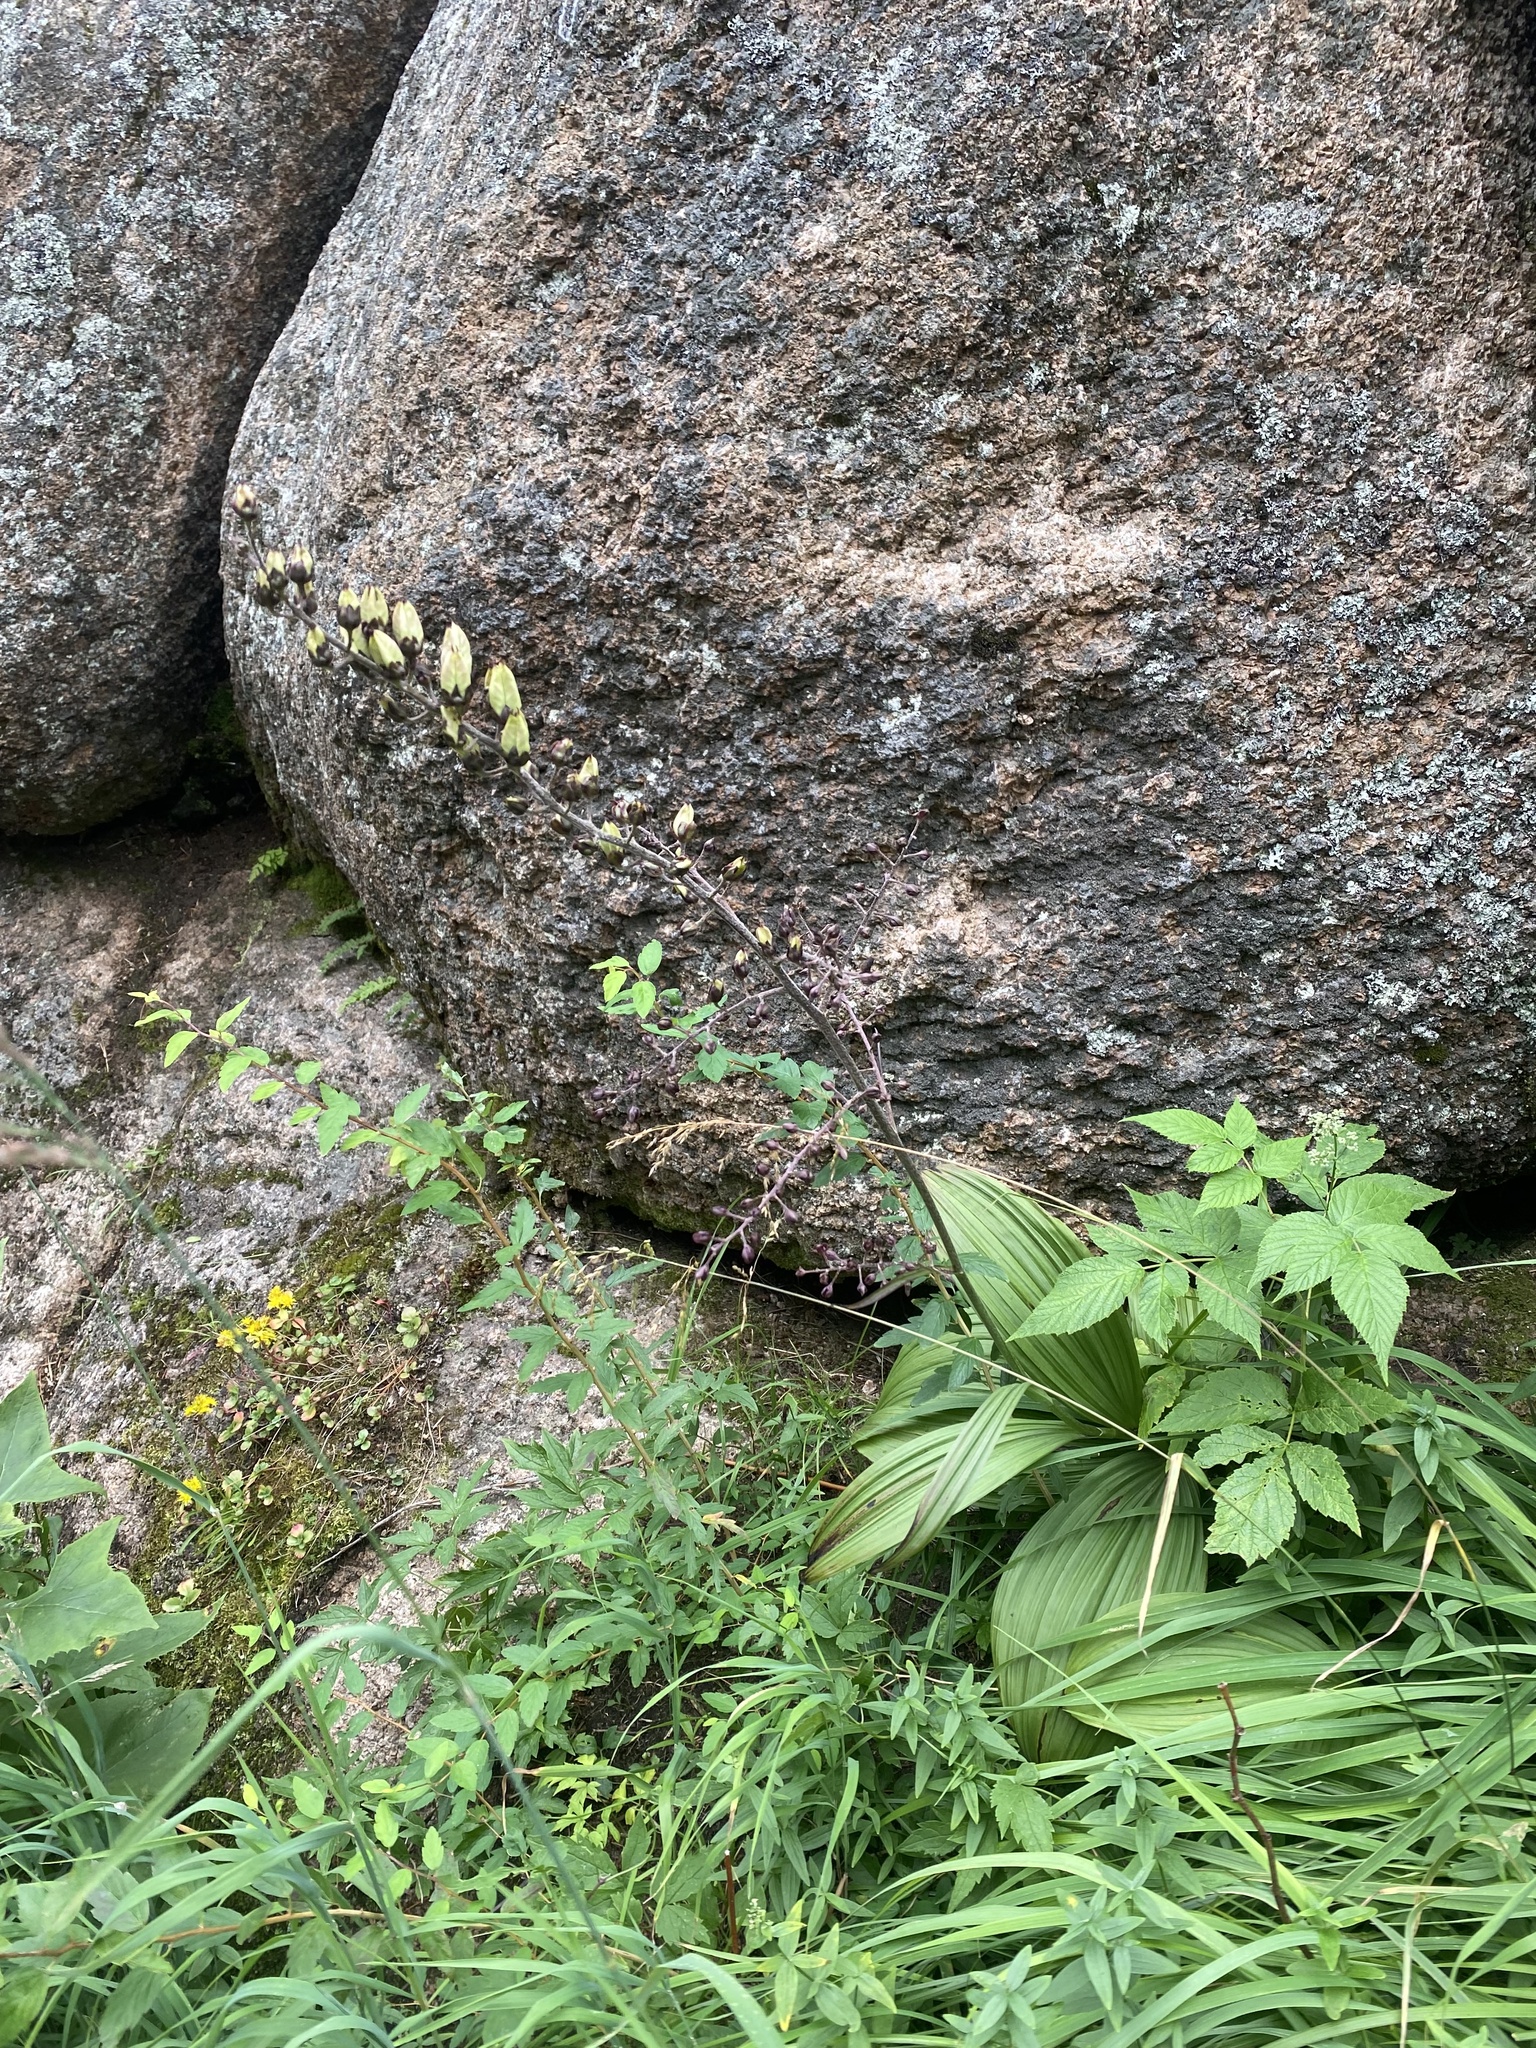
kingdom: Plantae
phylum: Tracheophyta
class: Liliopsida
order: Liliales
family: Melanthiaceae
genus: Veratrum
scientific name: Veratrum nigrum
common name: Black veratrum
